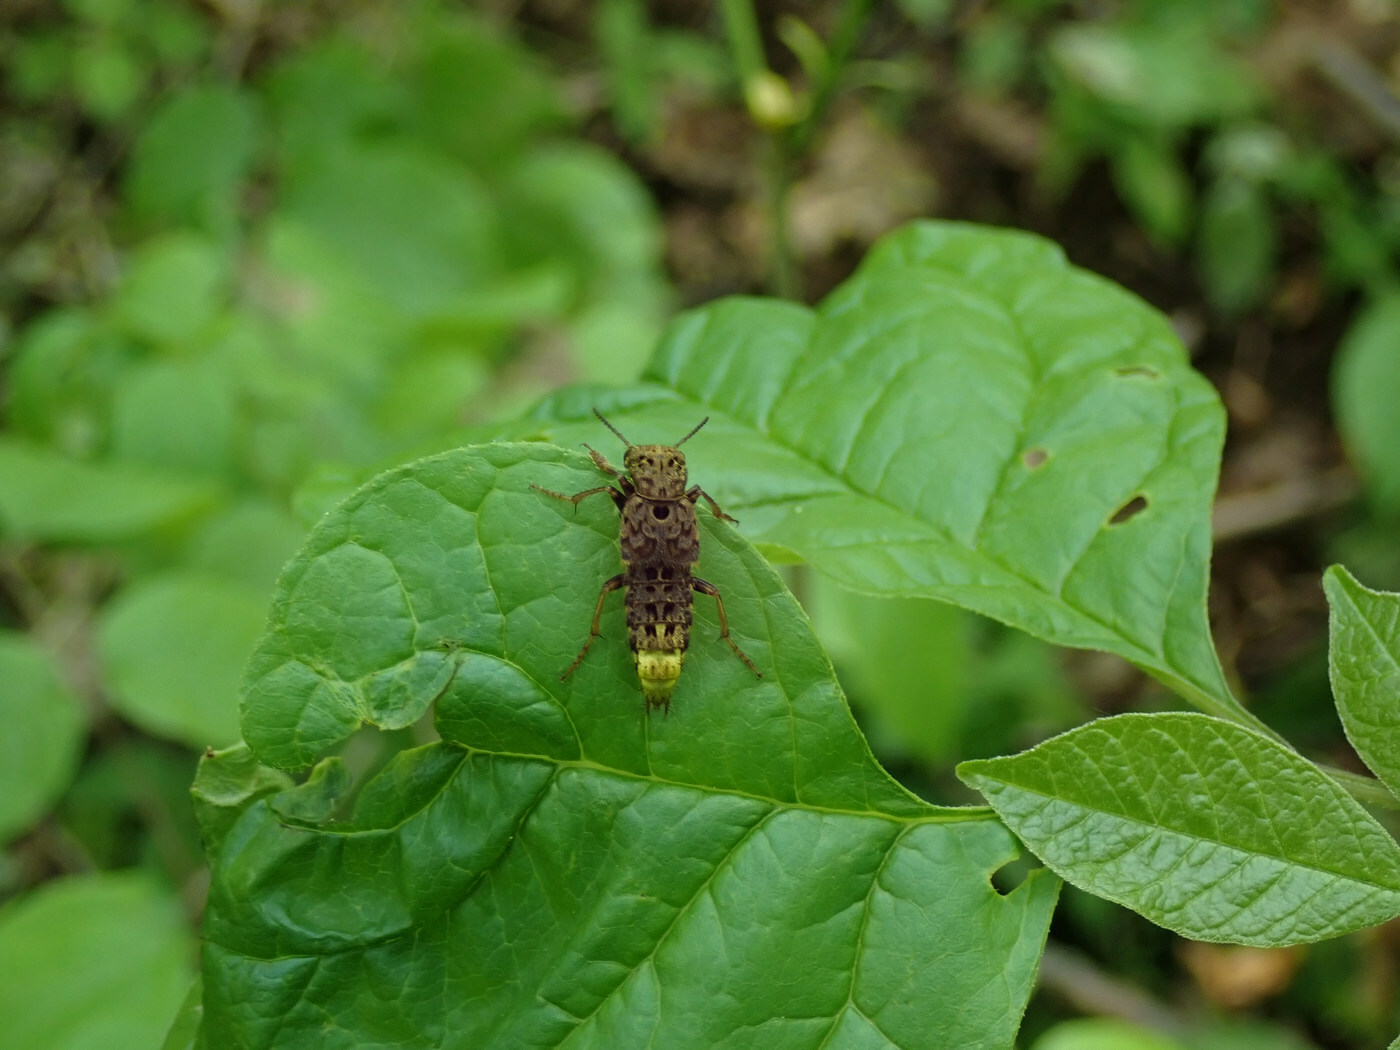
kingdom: Animalia
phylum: Arthropoda
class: Insecta
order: Coleoptera
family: Staphylinidae
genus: Ontholestes
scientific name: Ontholestes cingulatus
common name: Gold-and-brown rove beetle
